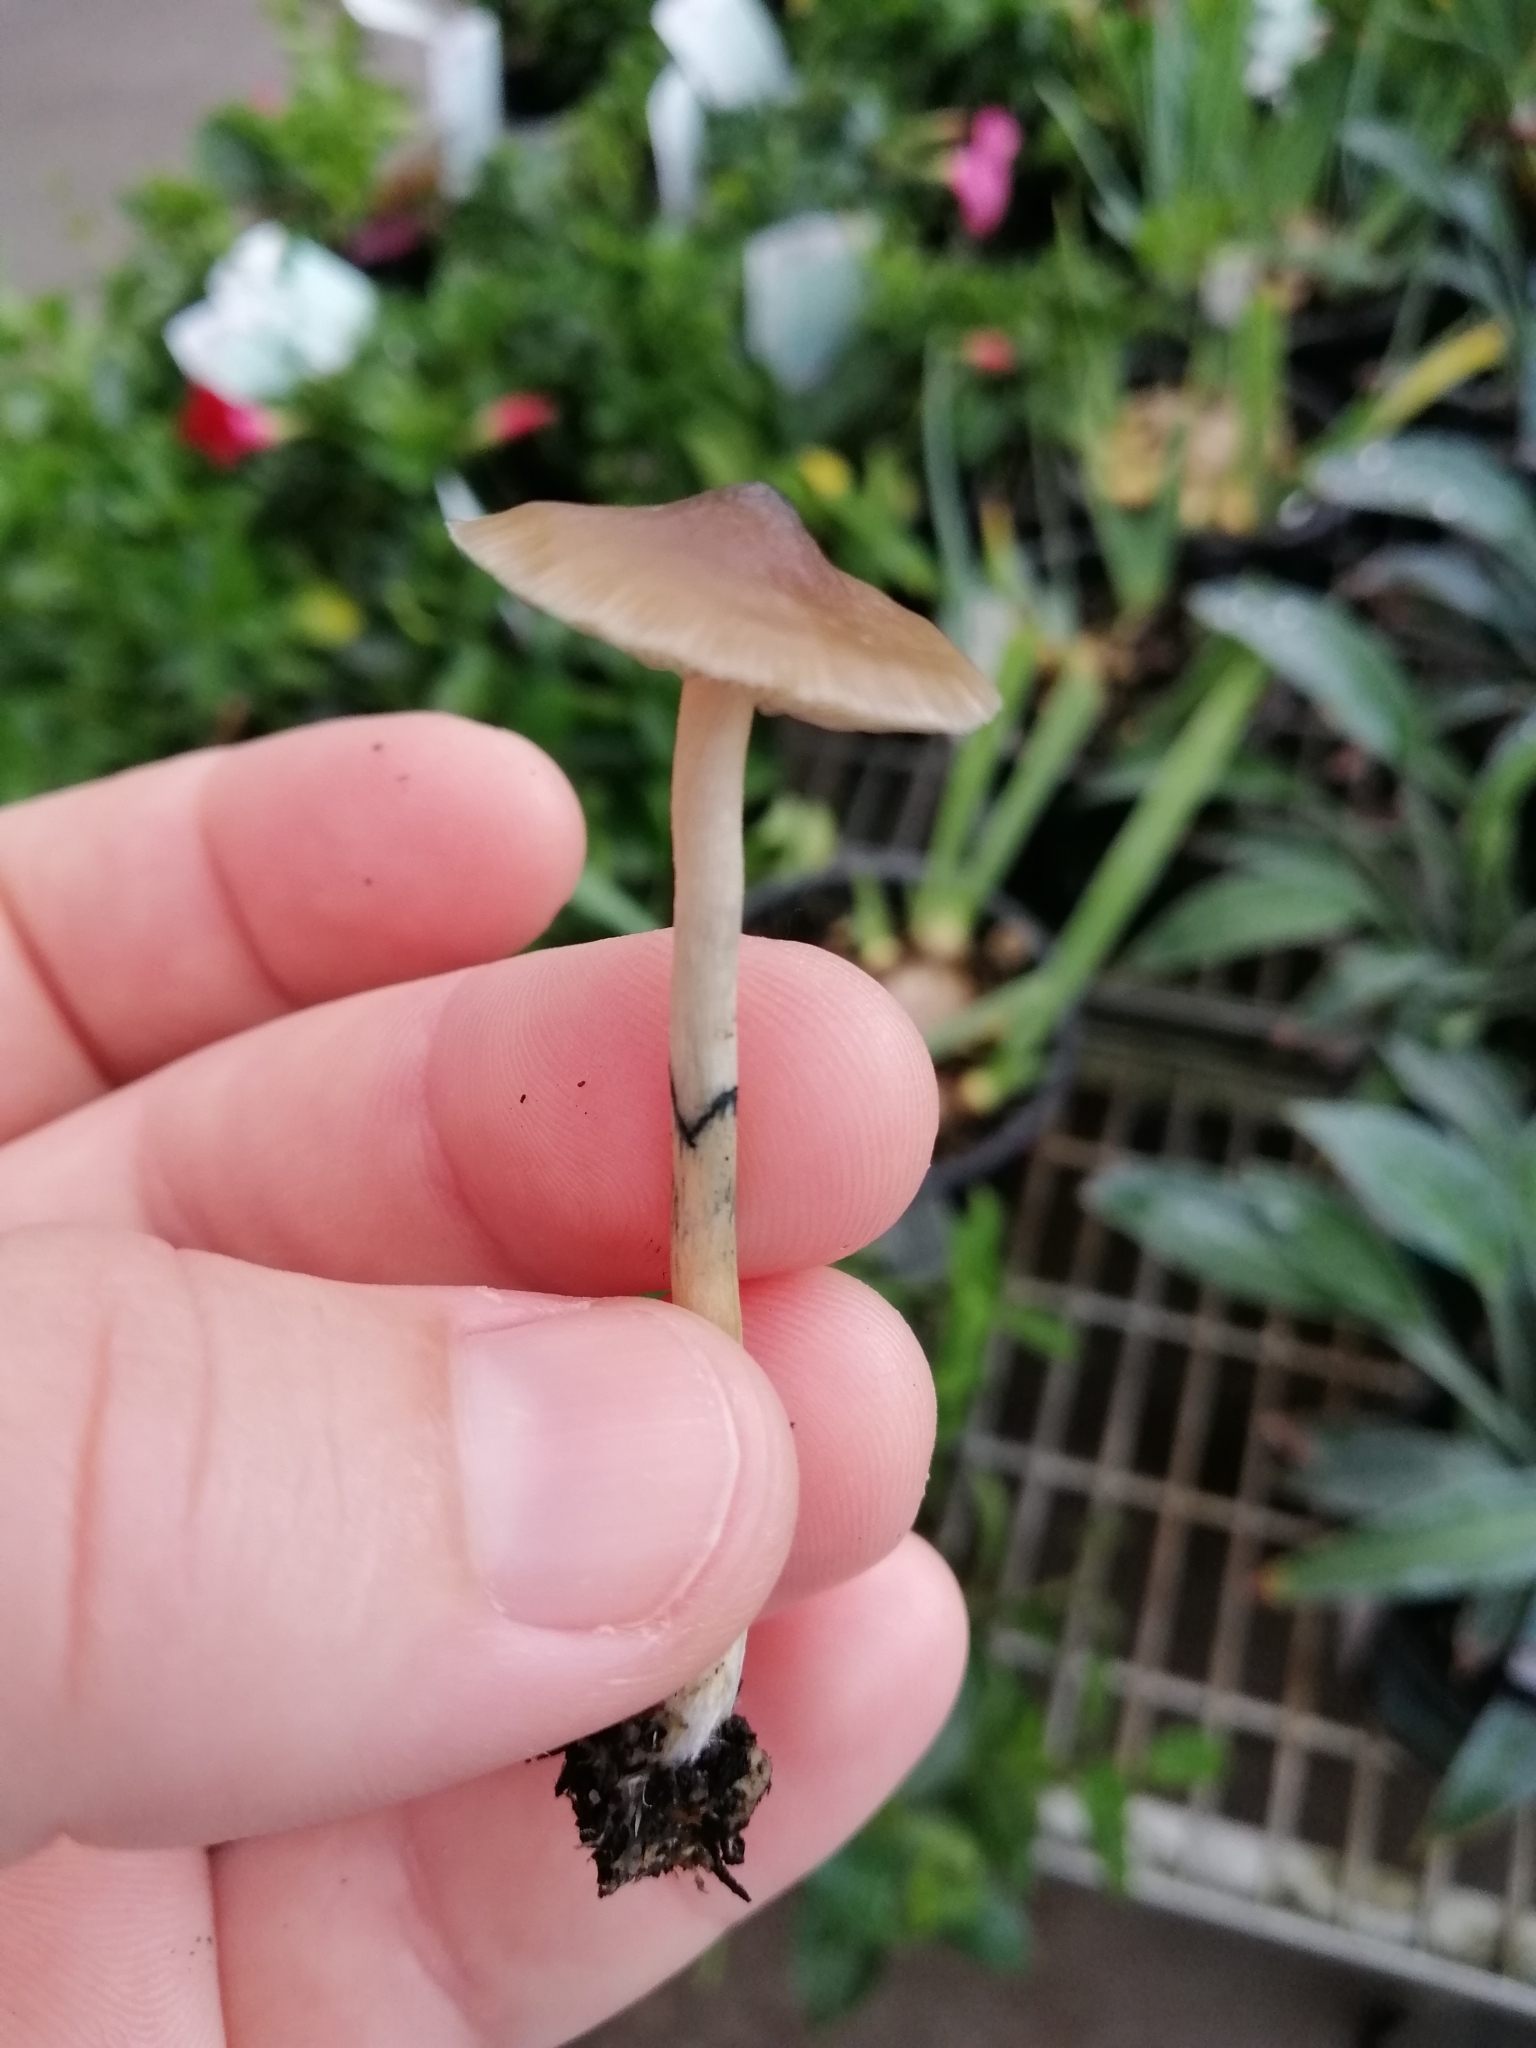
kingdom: Fungi
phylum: Basidiomycota
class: Agaricomycetes
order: Agaricales
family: Hymenogastraceae
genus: Psilocybe
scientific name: Psilocybe angulospora
